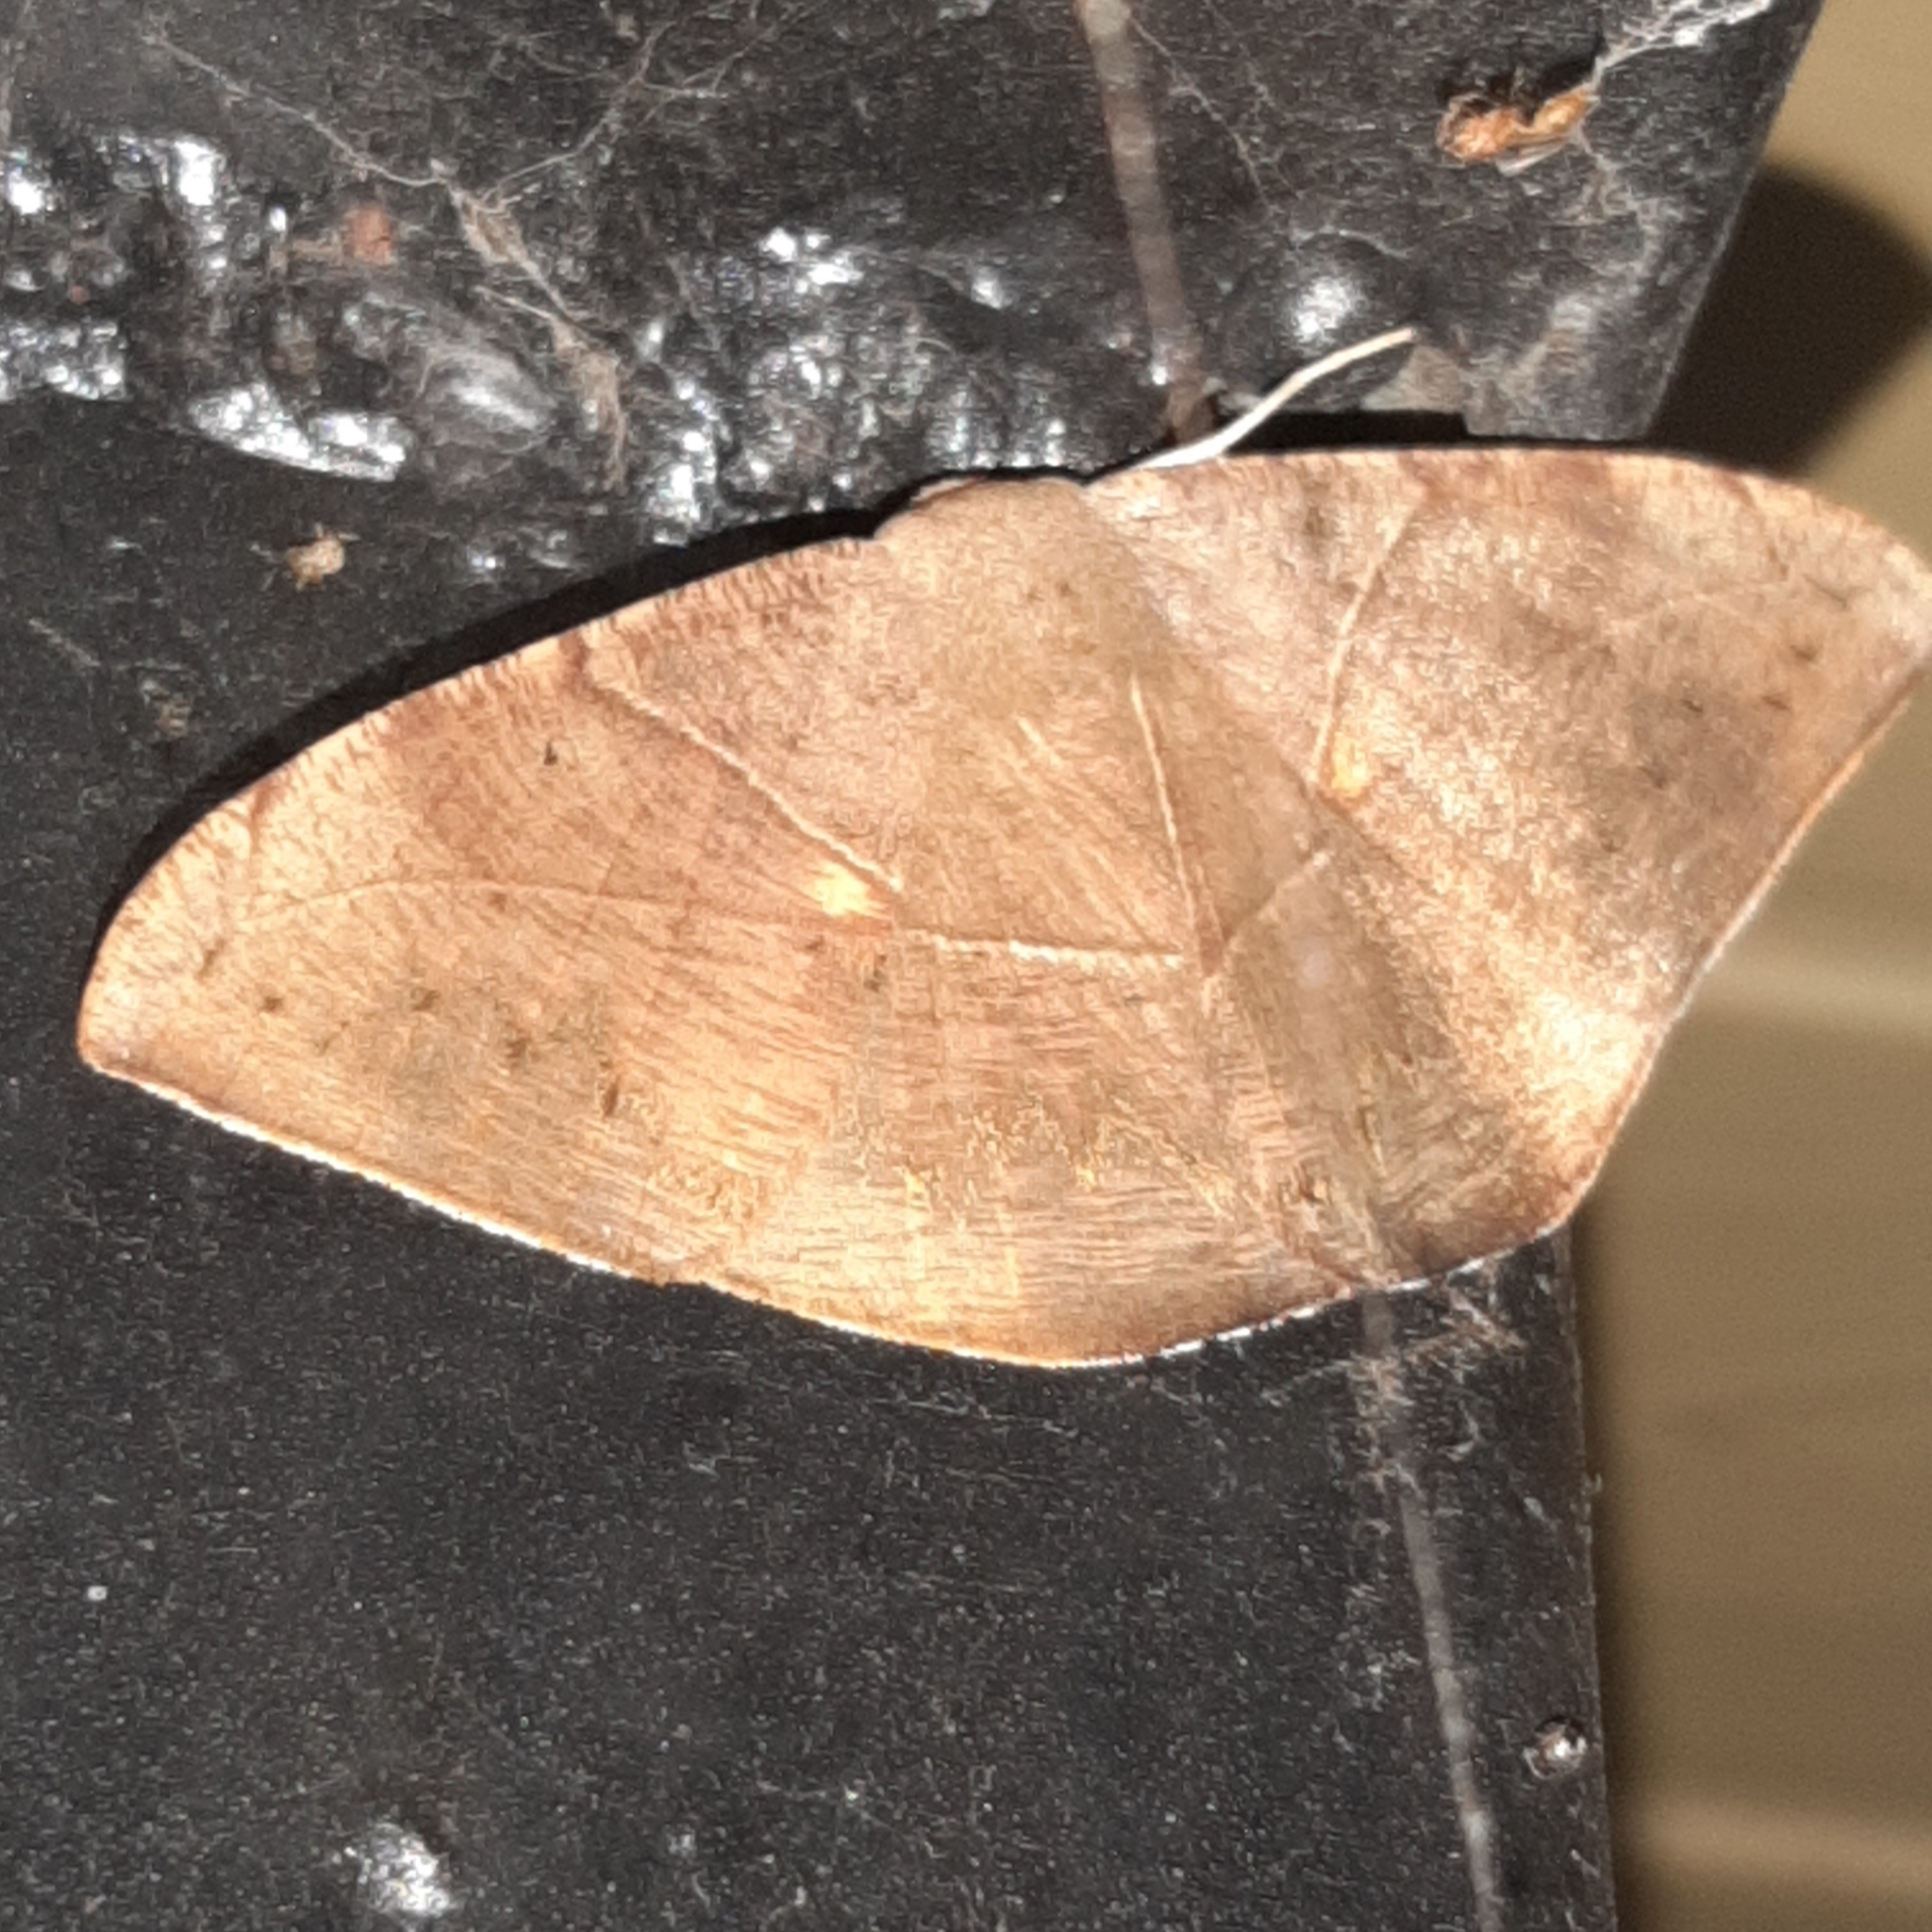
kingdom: Animalia
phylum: Arthropoda
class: Insecta
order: Lepidoptera
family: Geometridae
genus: Oxydia
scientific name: Oxydia trychiata
